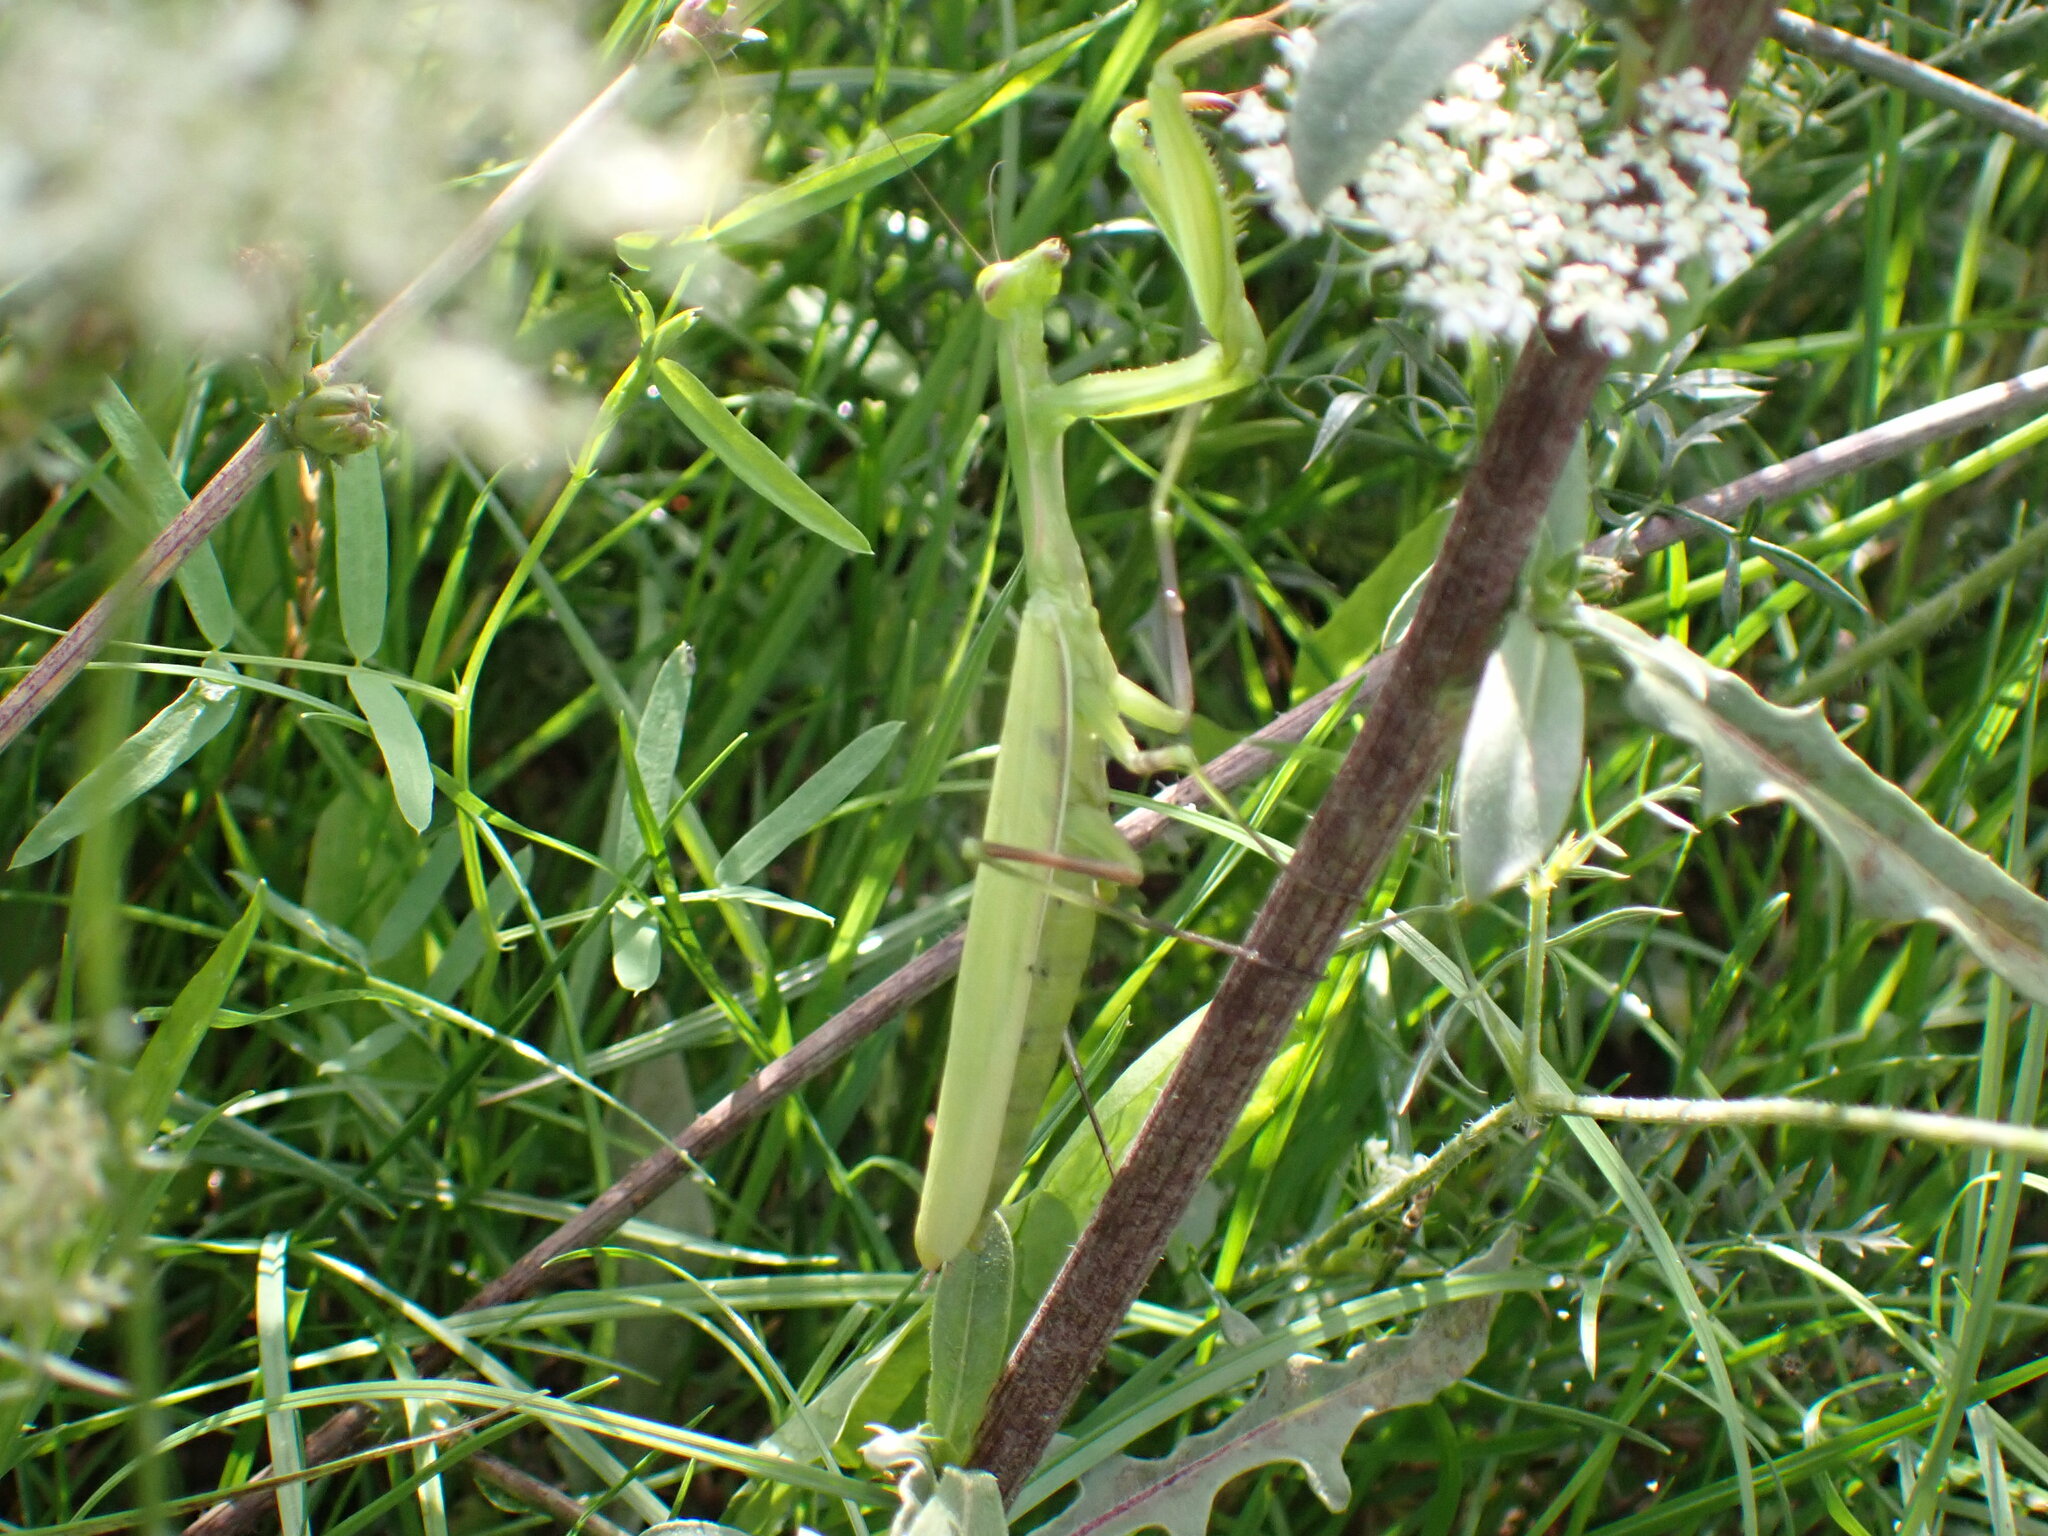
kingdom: Animalia
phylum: Arthropoda
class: Insecta
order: Mantodea
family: Mantidae
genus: Mantis
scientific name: Mantis religiosa
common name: Praying mantis
